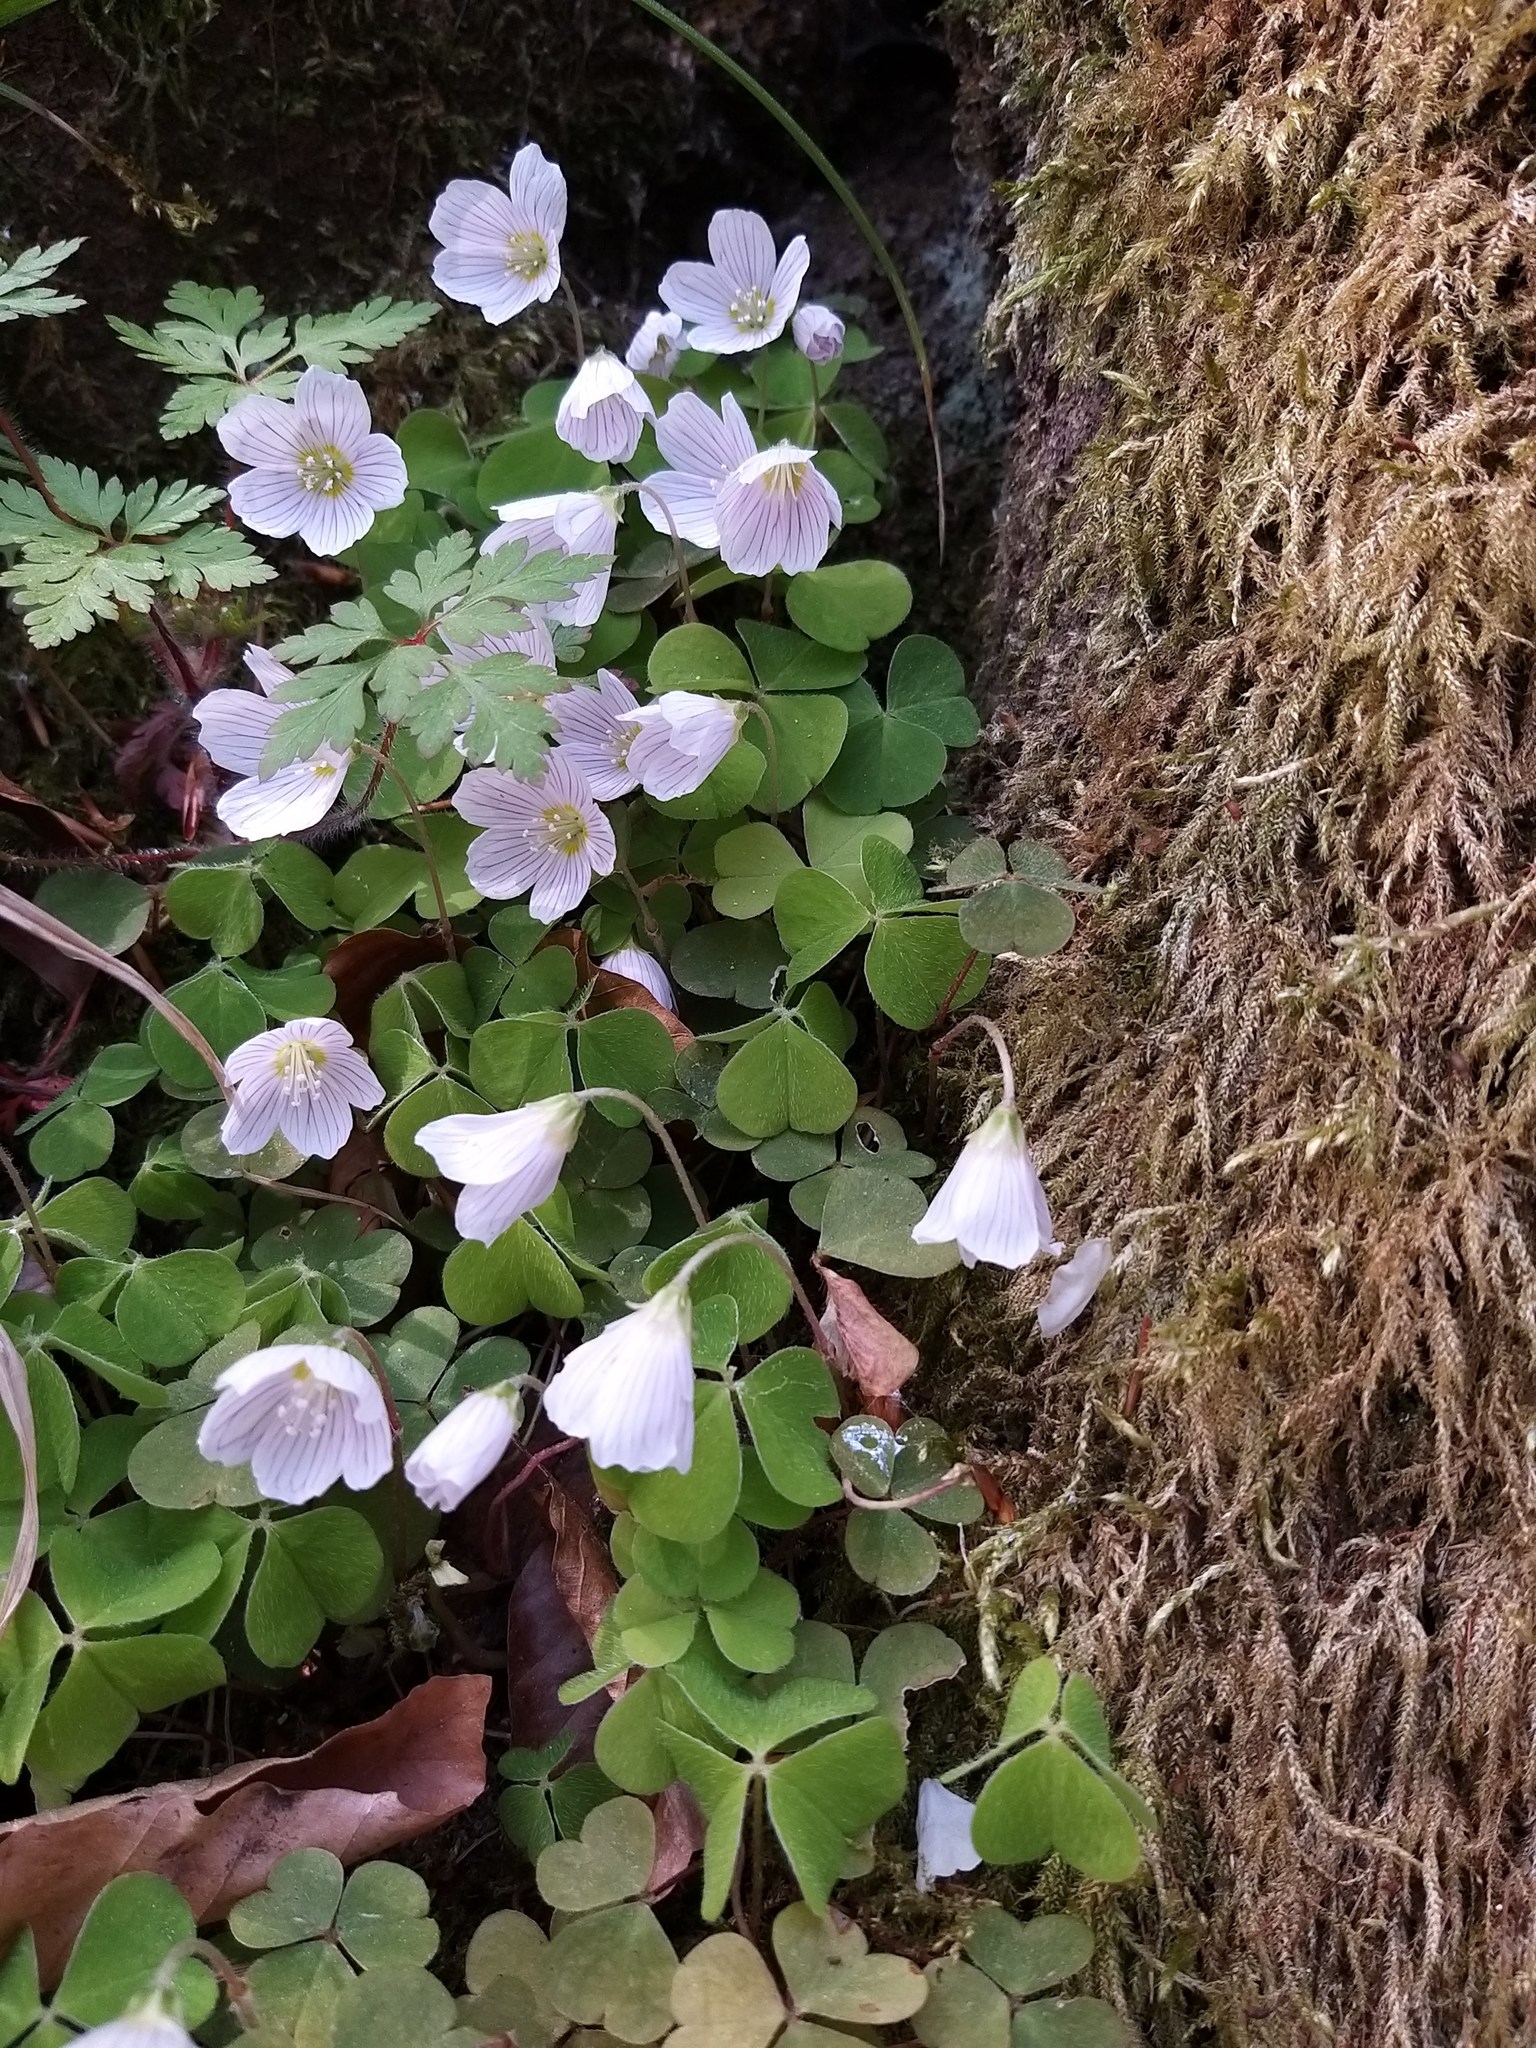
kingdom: Plantae
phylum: Tracheophyta
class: Magnoliopsida
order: Oxalidales
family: Oxalidaceae
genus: Oxalis
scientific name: Oxalis acetosella
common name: Wood-sorrel
